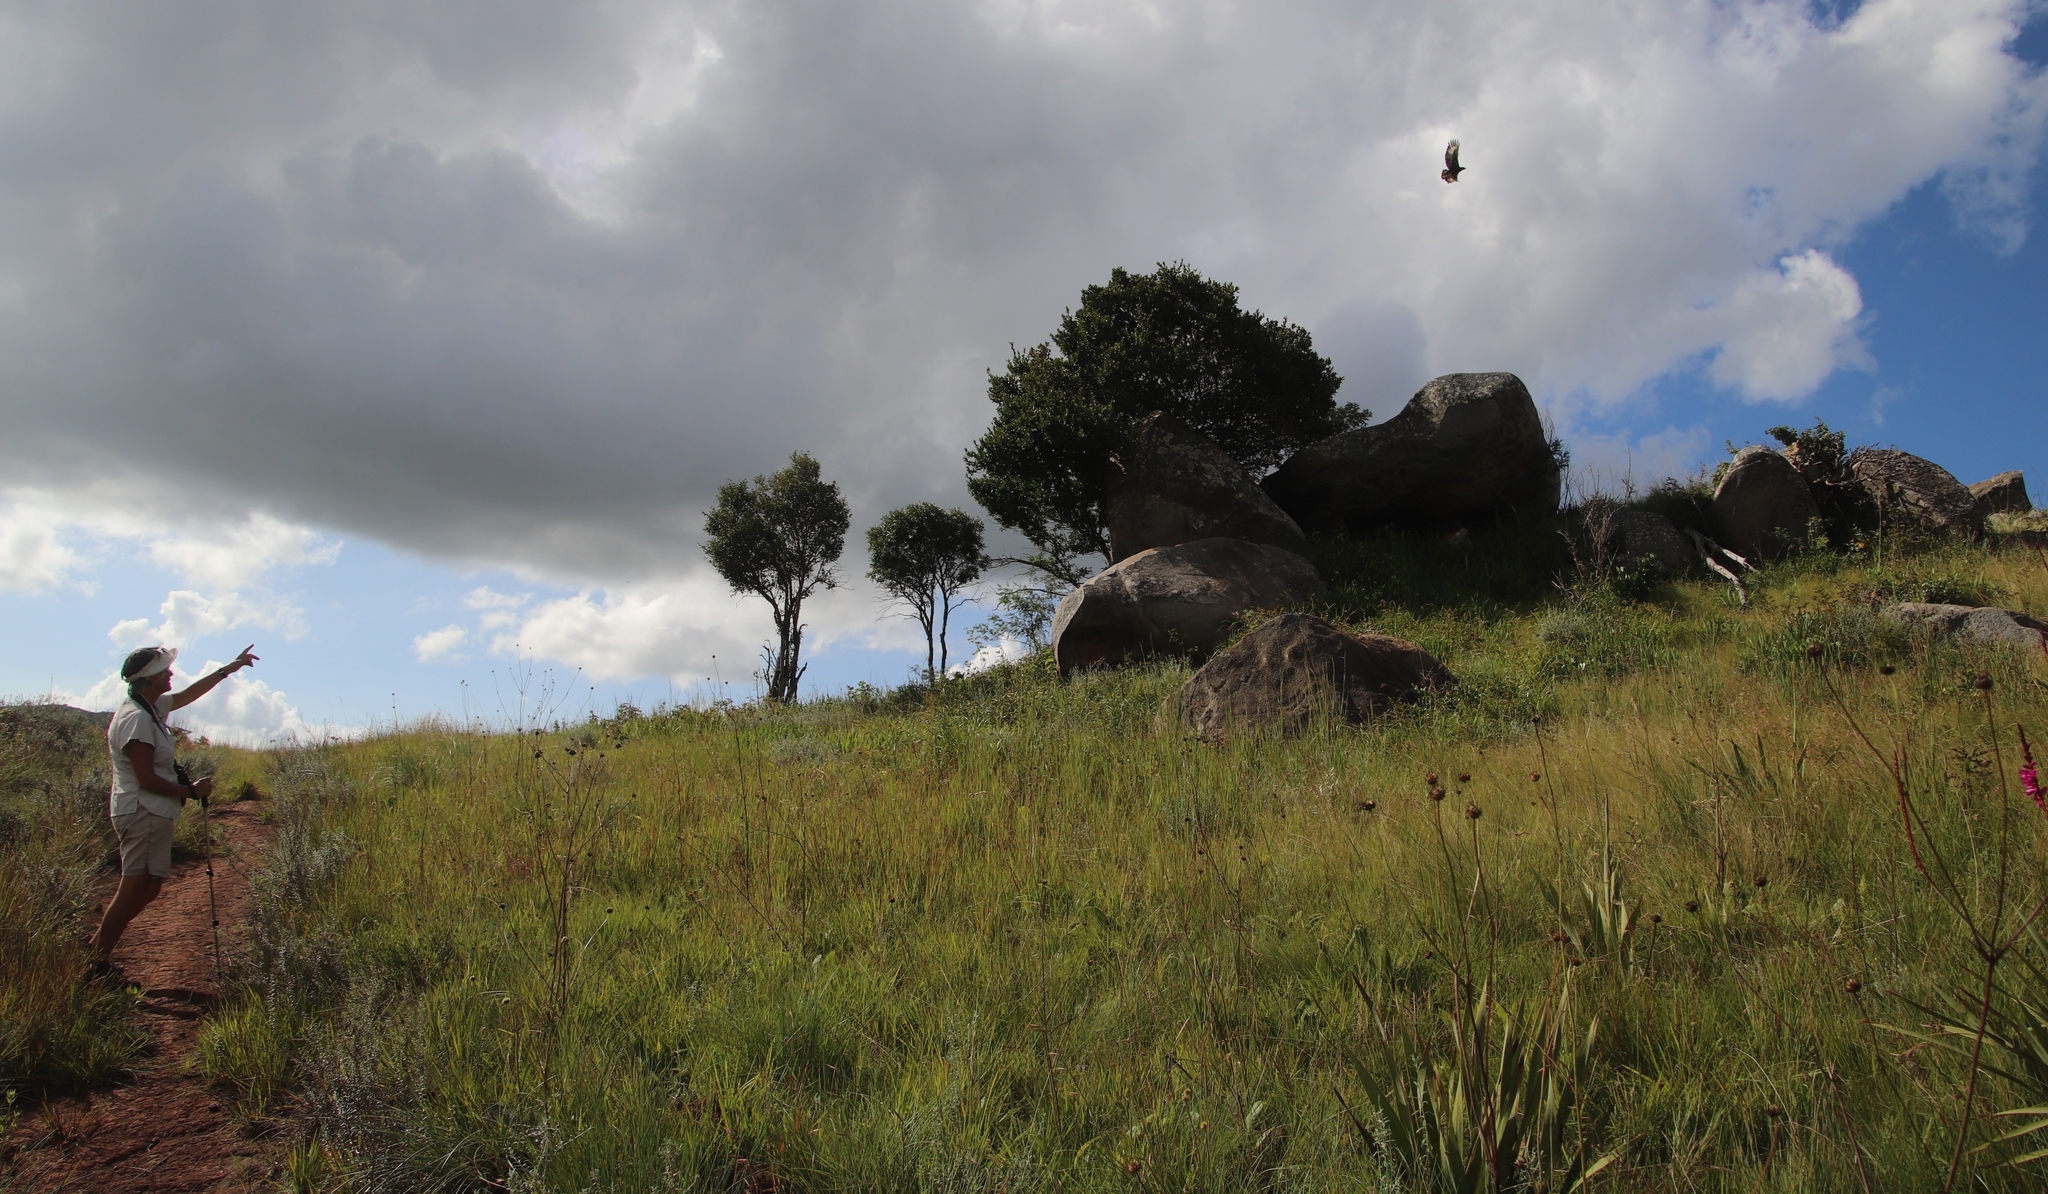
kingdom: Animalia
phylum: Chordata
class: Aves
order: Accipitriformes
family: Accipitridae
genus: Lophaetus
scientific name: Lophaetus occipitalis
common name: Long-crested eagle
